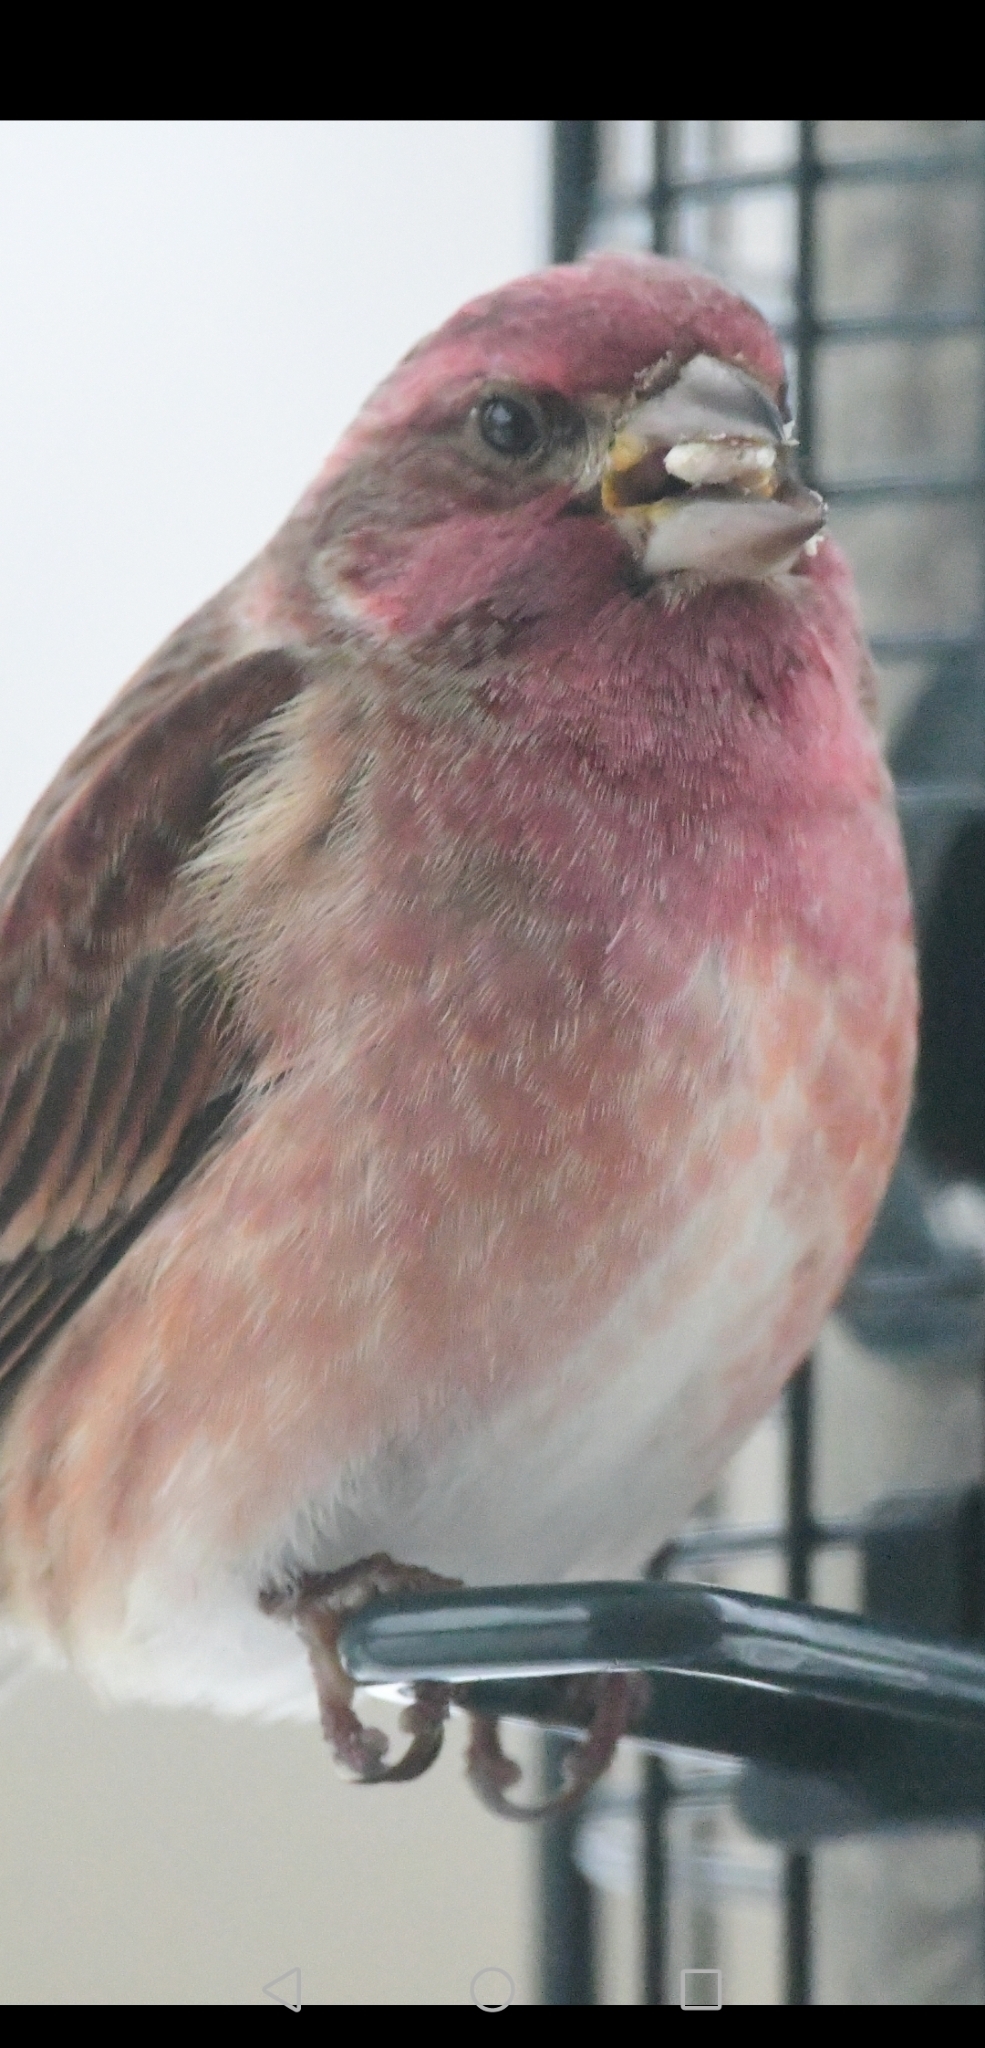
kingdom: Animalia
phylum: Chordata
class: Aves
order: Passeriformes
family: Fringillidae
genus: Haemorhous
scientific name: Haemorhous purpureus
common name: Purple finch
